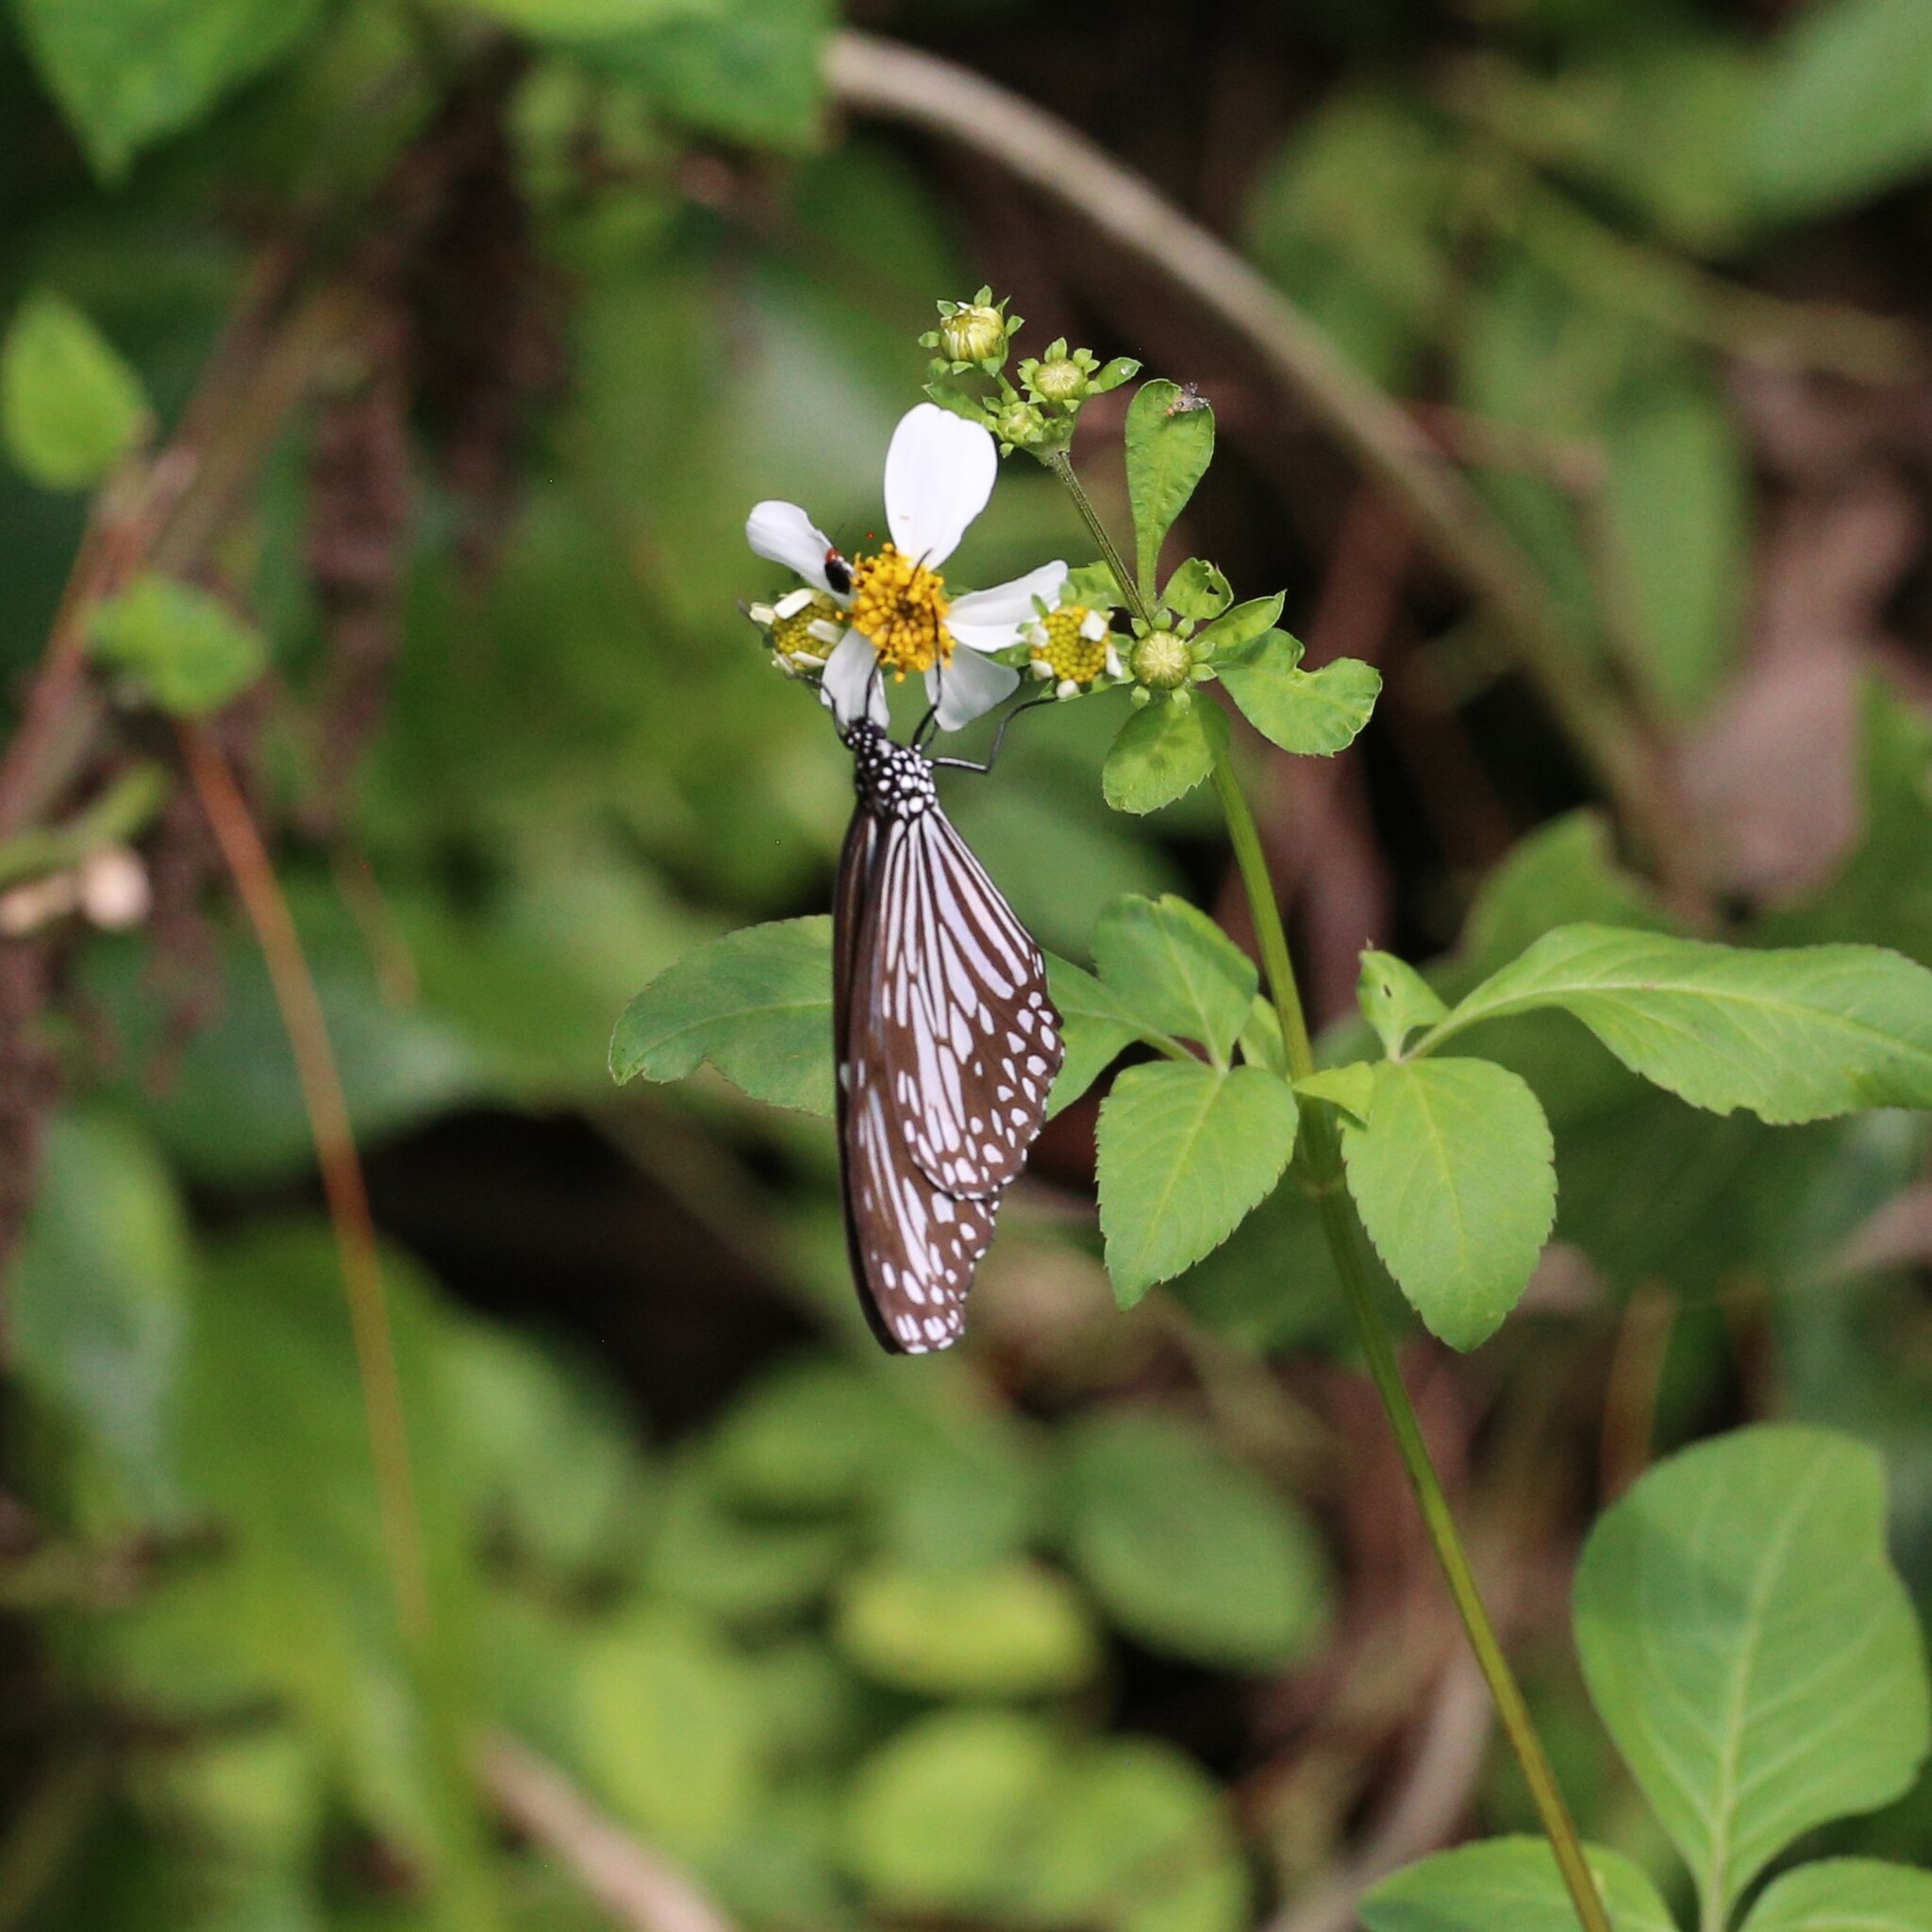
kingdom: Animalia
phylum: Arthropoda
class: Insecta
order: Lepidoptera
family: Nymphalidae
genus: Parantica
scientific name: Parantica aglea
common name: Glassy tiger
